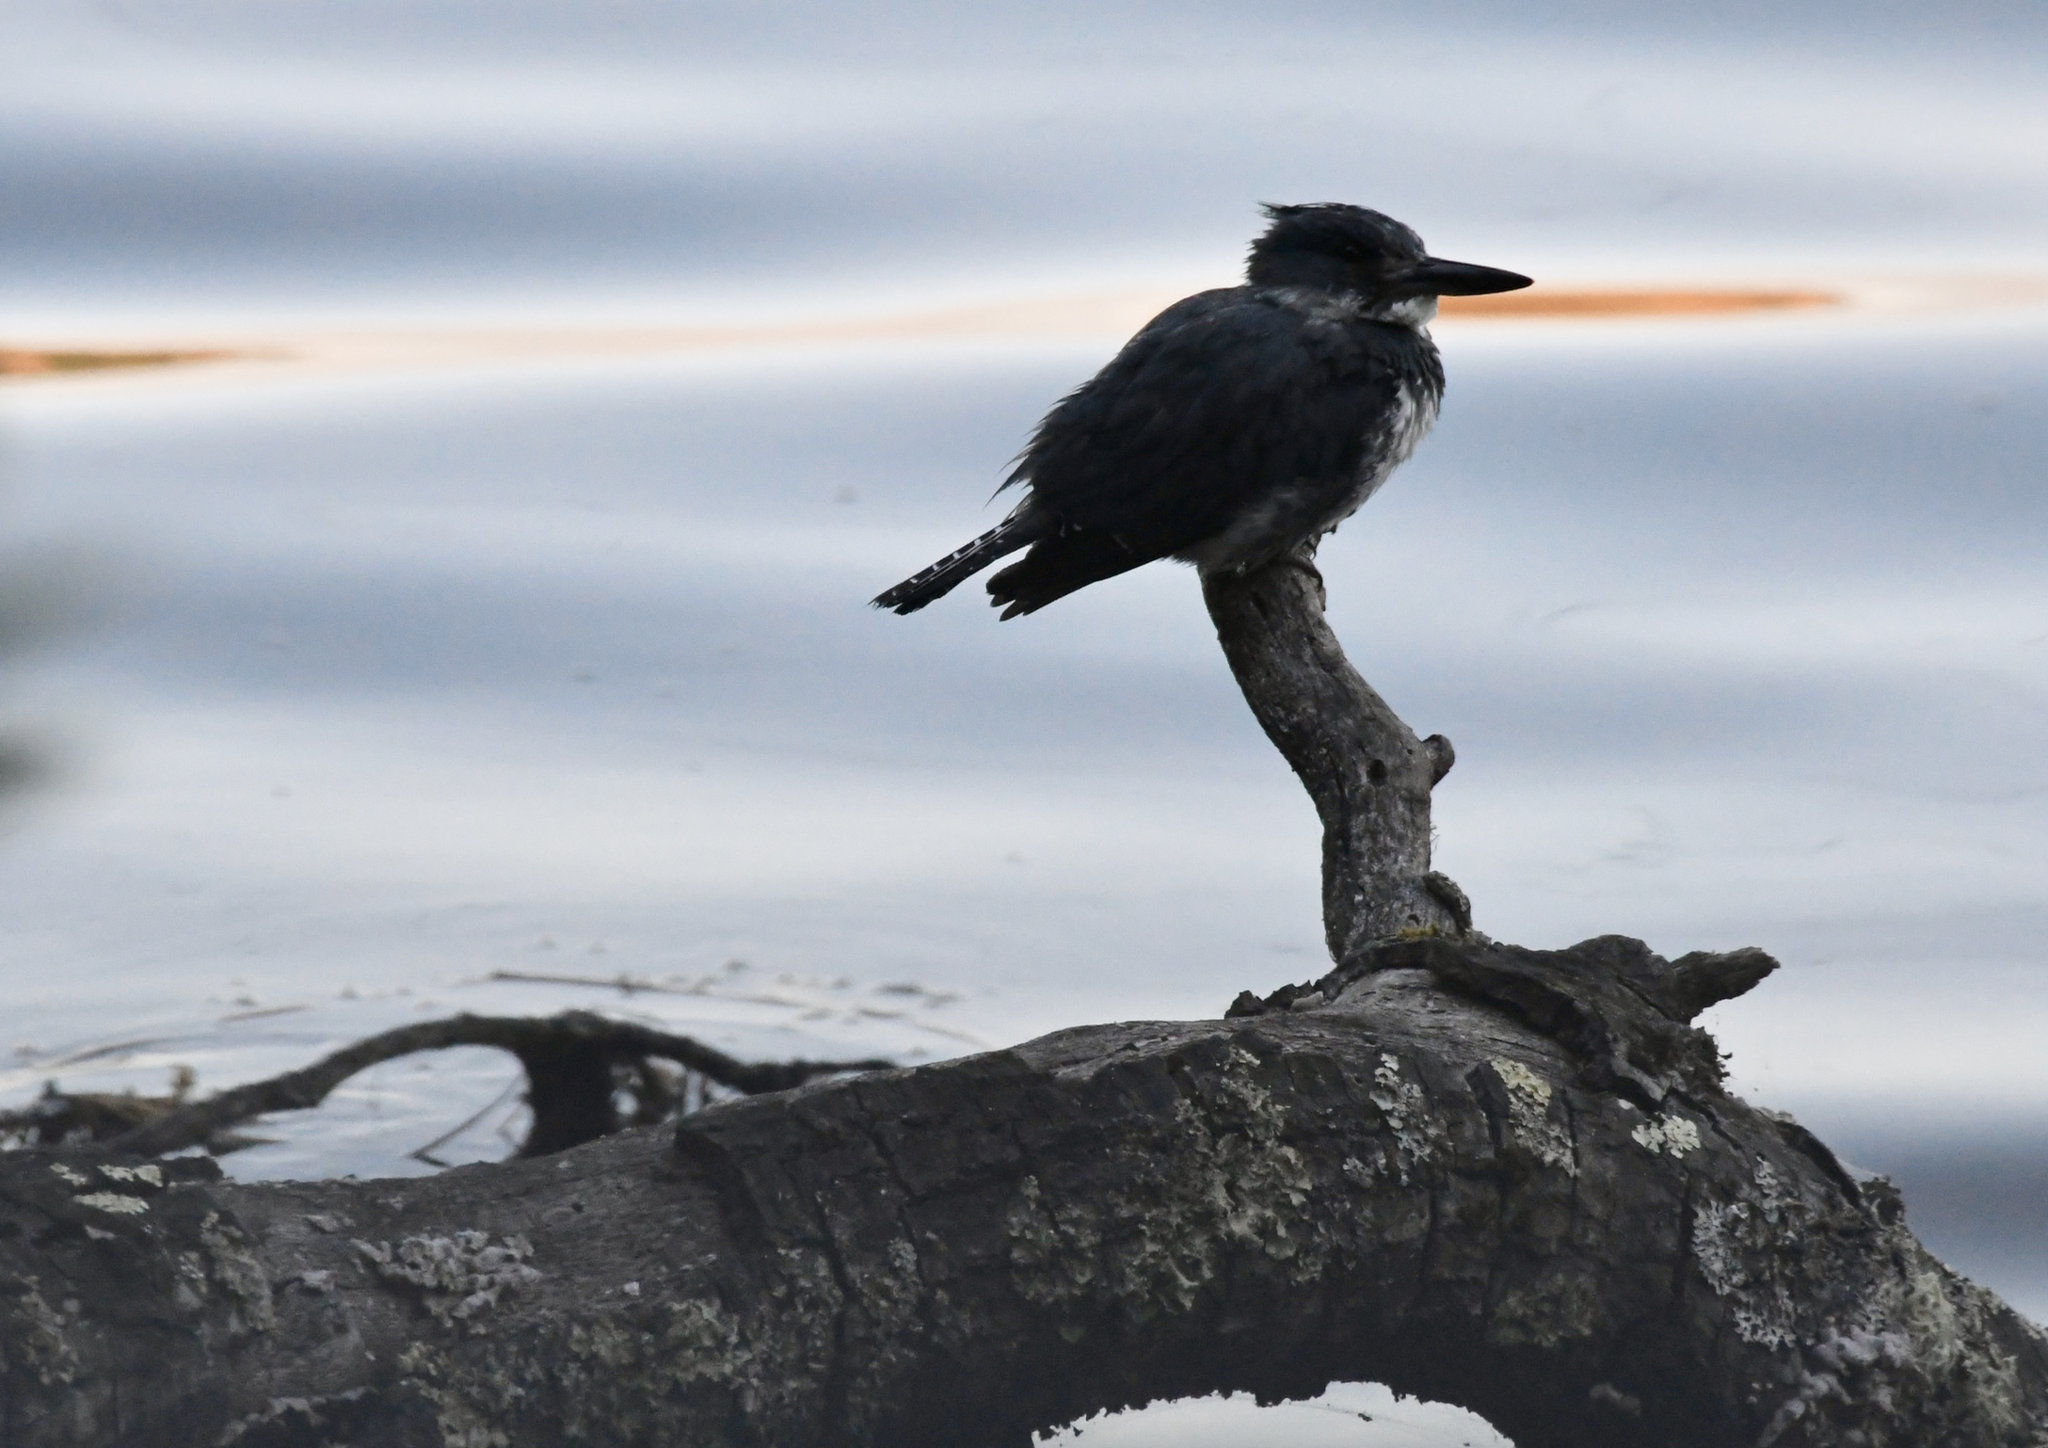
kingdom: Animalia
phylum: Chordata
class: Aves
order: Coraciiformes
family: Alcedinidae
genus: Megaceryle
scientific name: Megaceryle alcyon
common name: Belted kingfisher
